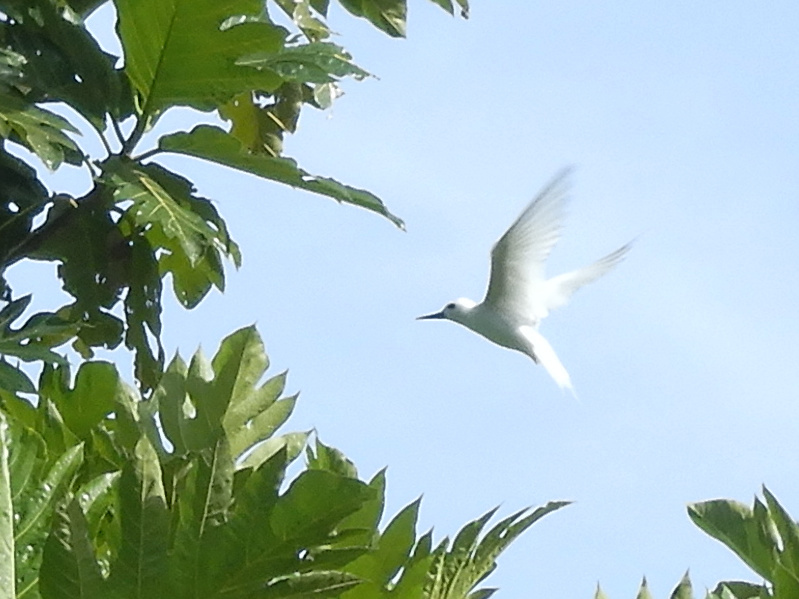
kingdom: Animalia
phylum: Chordata
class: Aves
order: Charadriiformes
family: Laridae
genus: Gygis
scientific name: Gygis alba
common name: White tern
